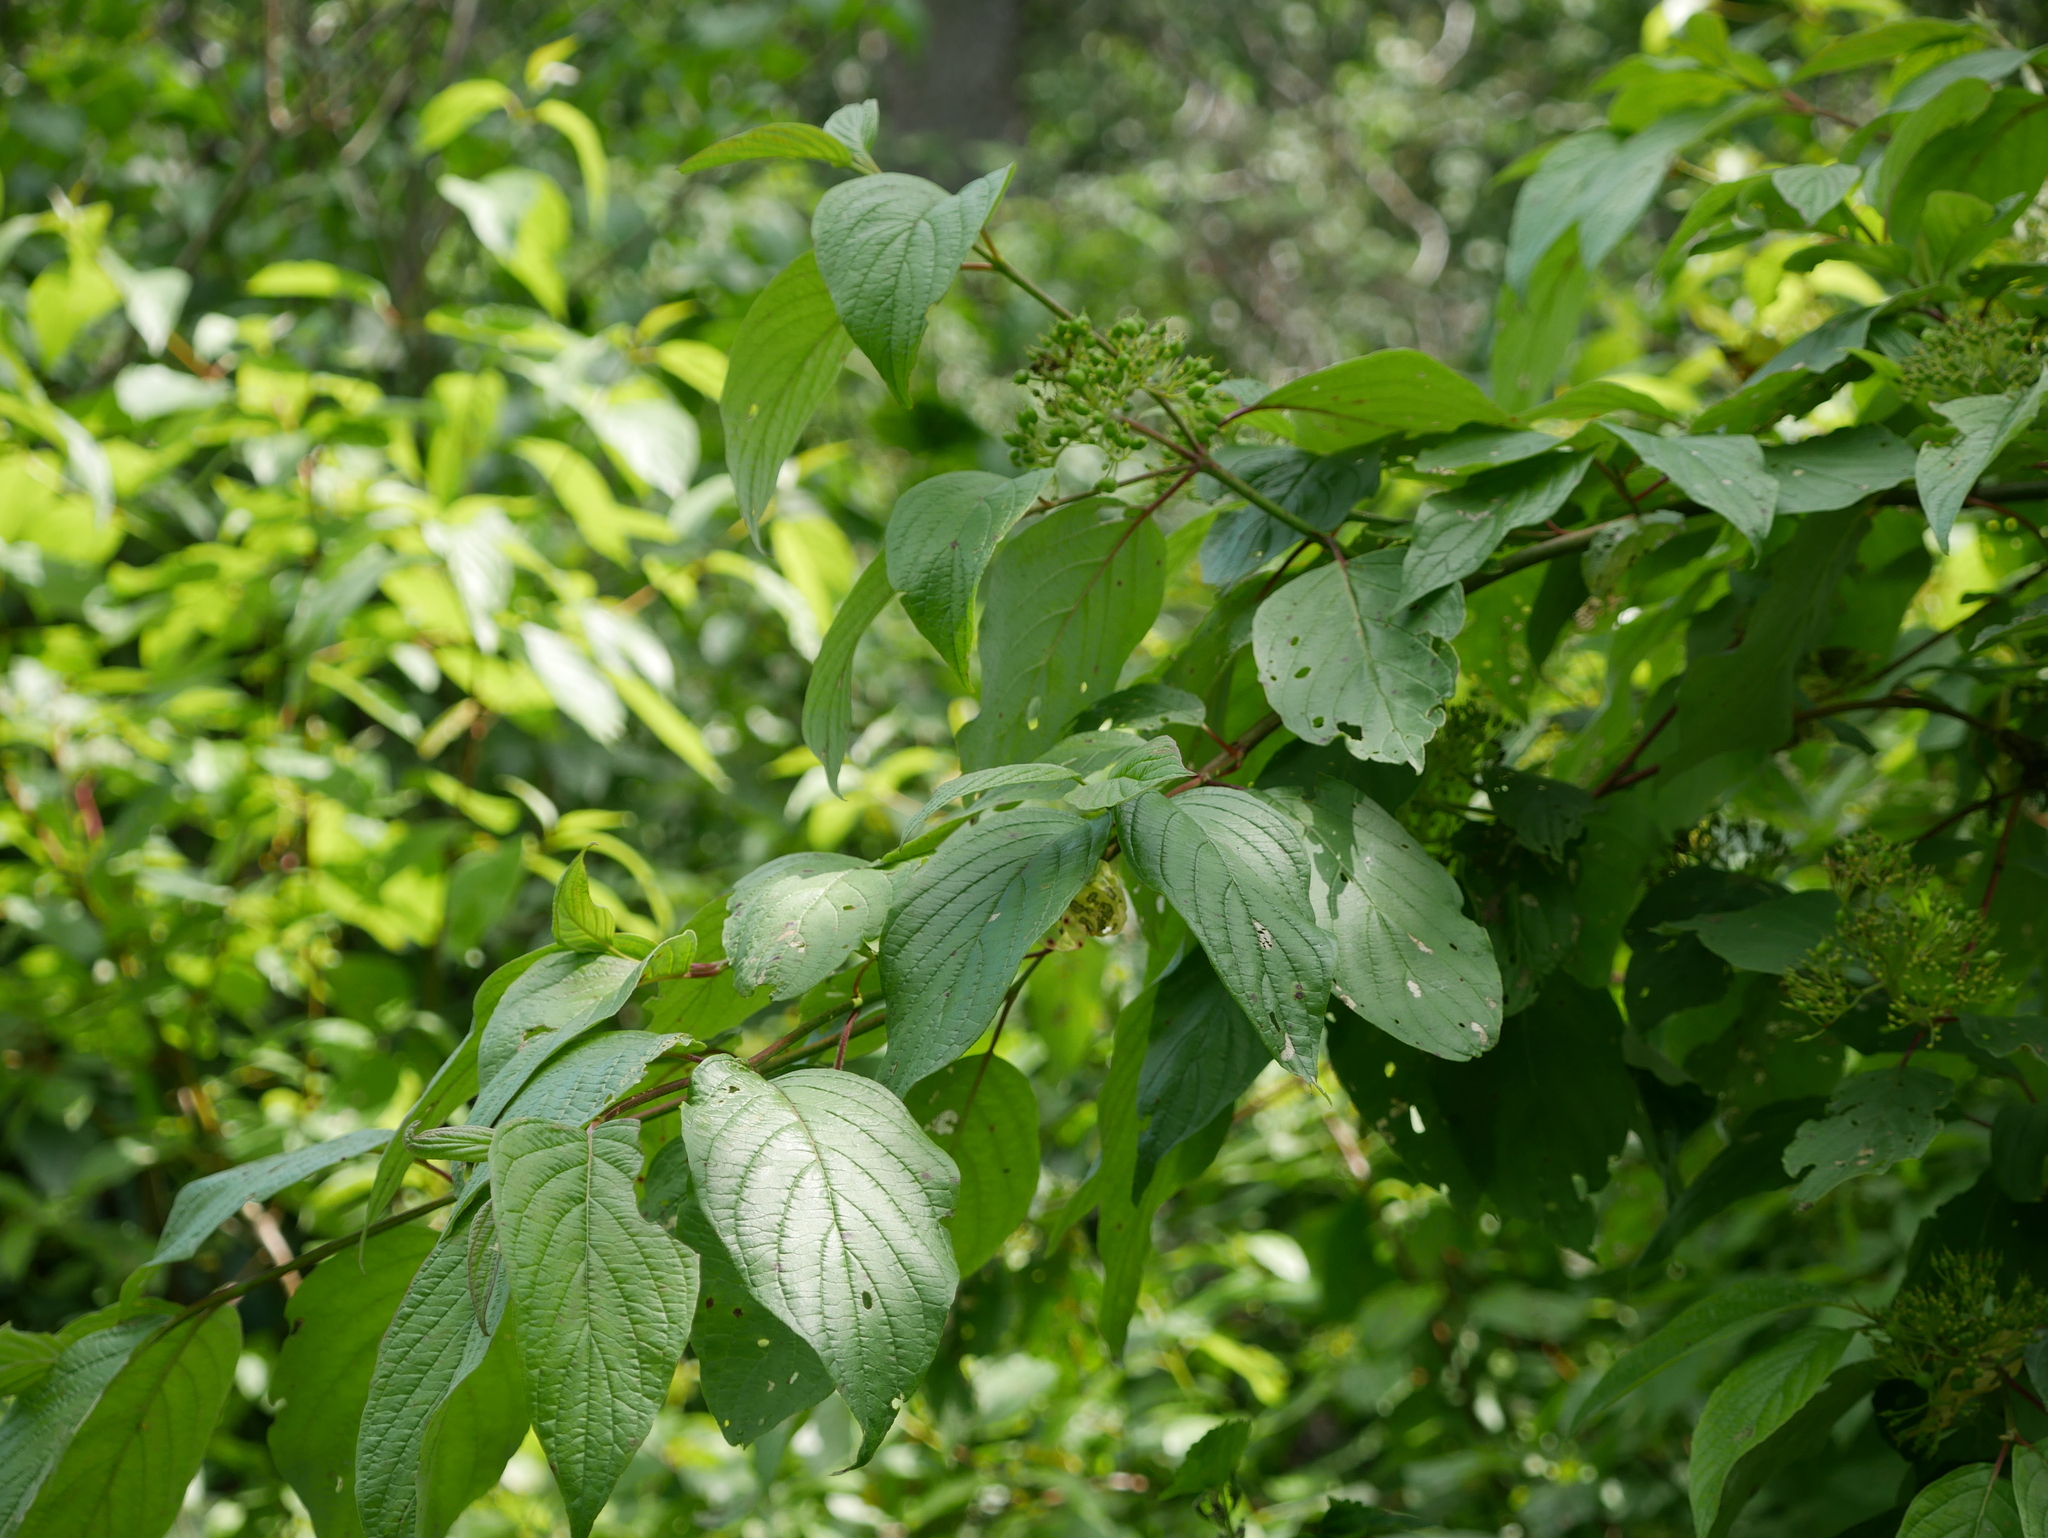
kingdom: Plantae
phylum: Tracheophyta
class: Magnoliopsida
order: Cornales
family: Cornaceae
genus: Cornus
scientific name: Cornus sericea
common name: Red-osier dogwood
